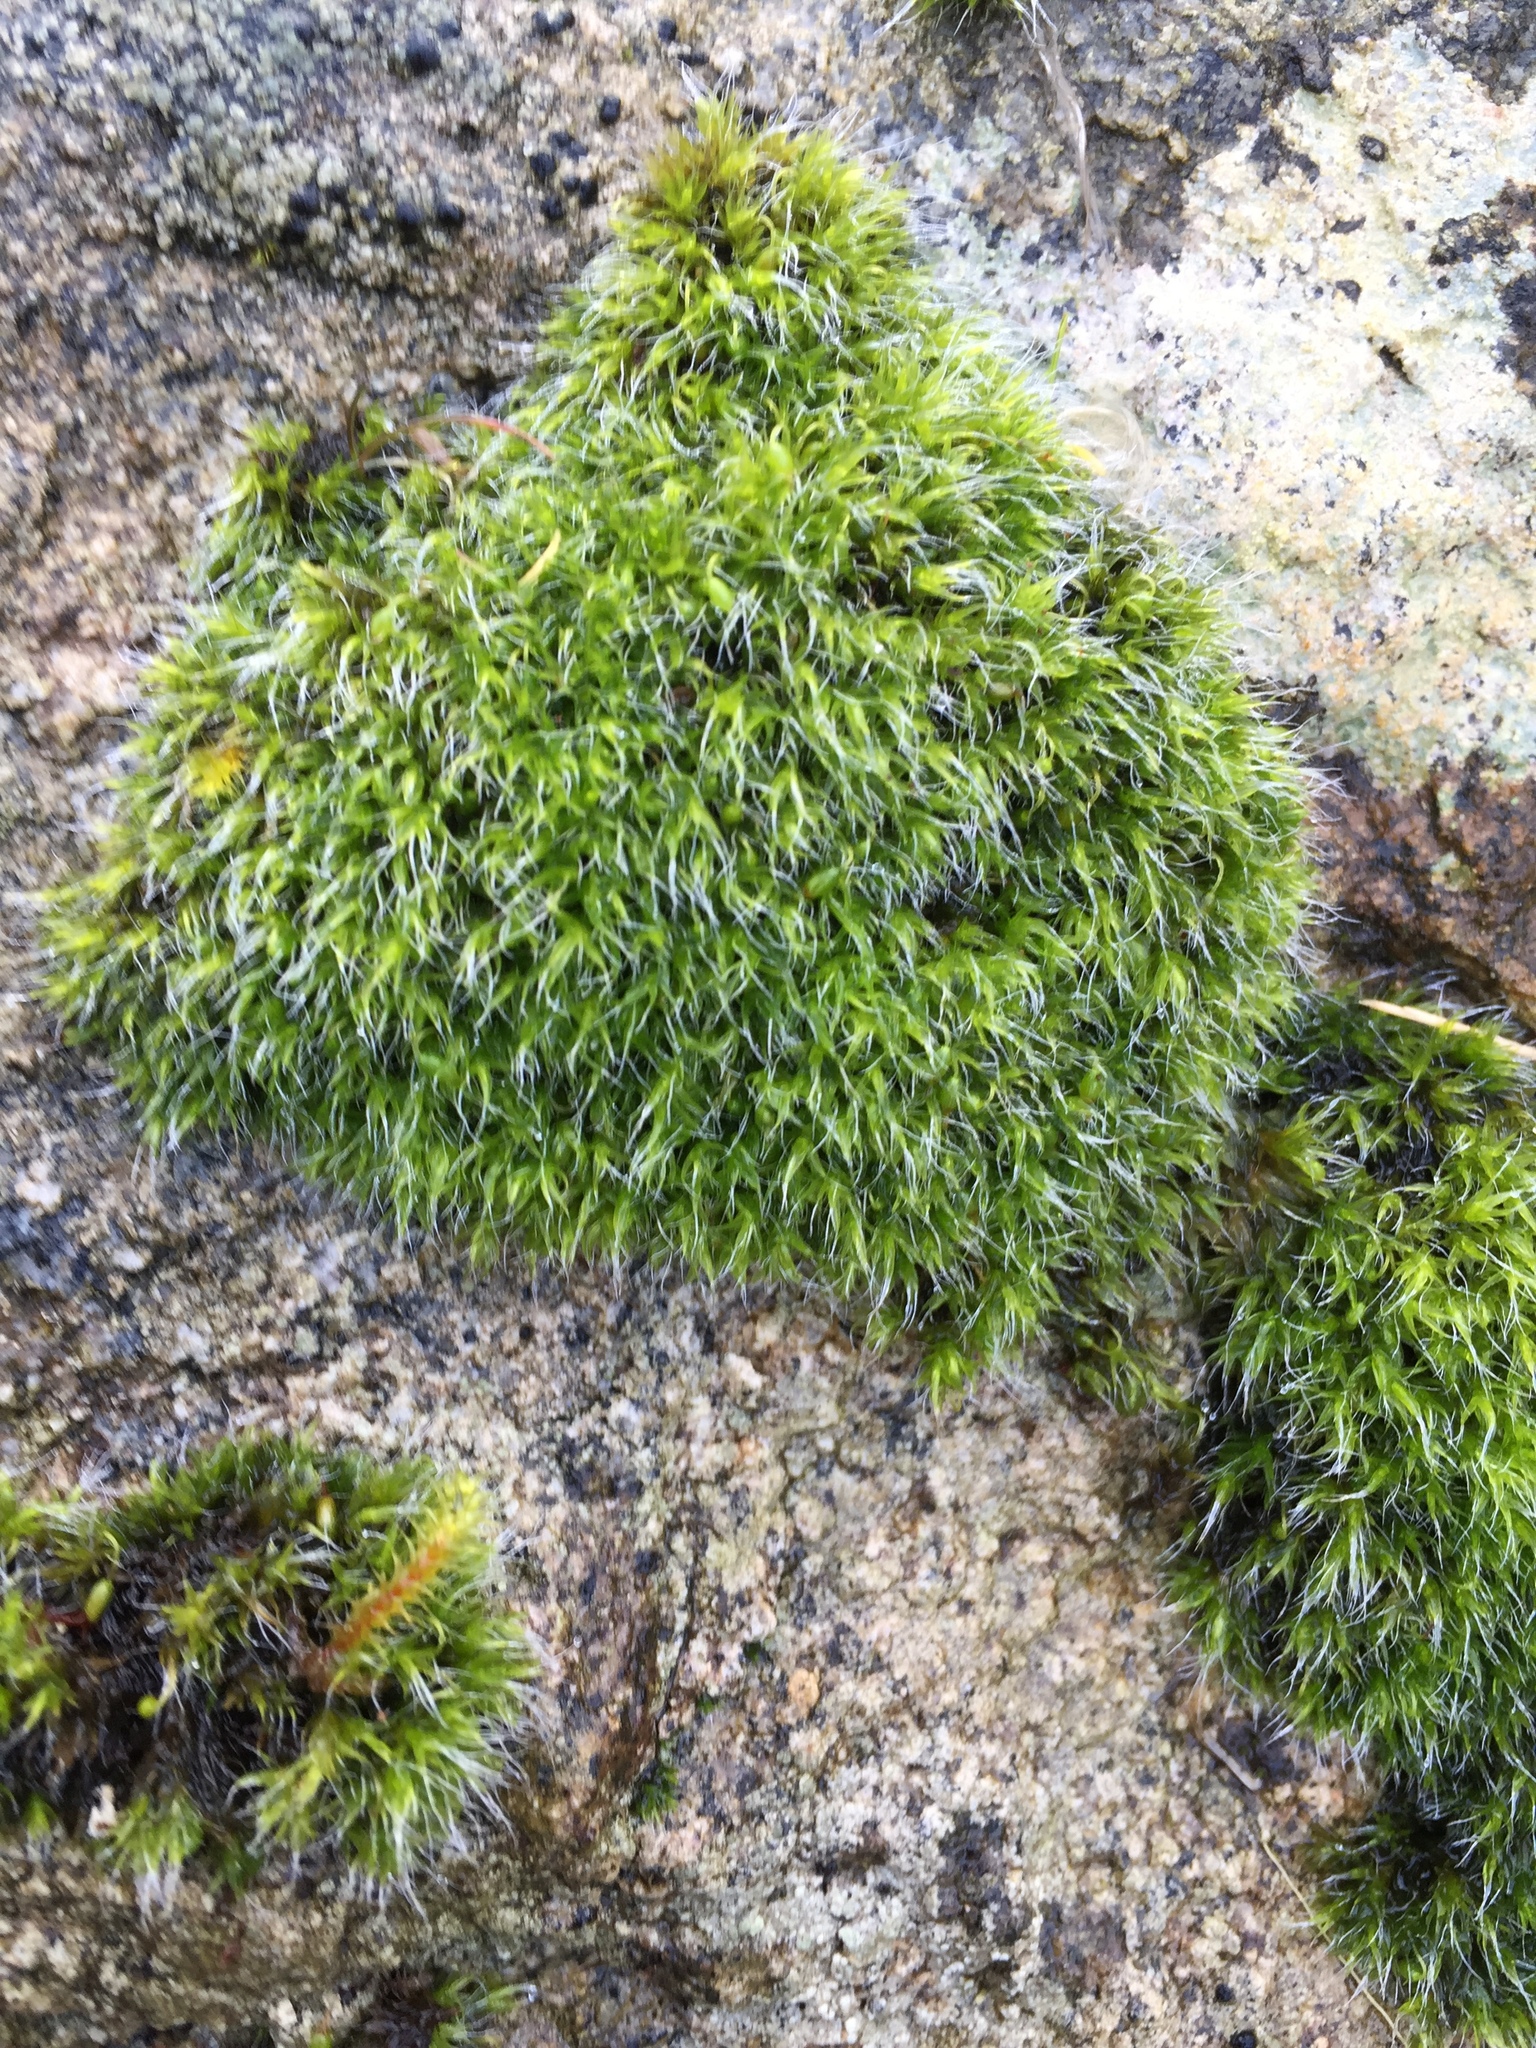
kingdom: Plantae
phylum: Bryophyta
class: Bryopsida
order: Grimmiales
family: Grimmiaceae
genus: Grimmia
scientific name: Grimmia pulvinata
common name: Grey-cushioned grimmia
